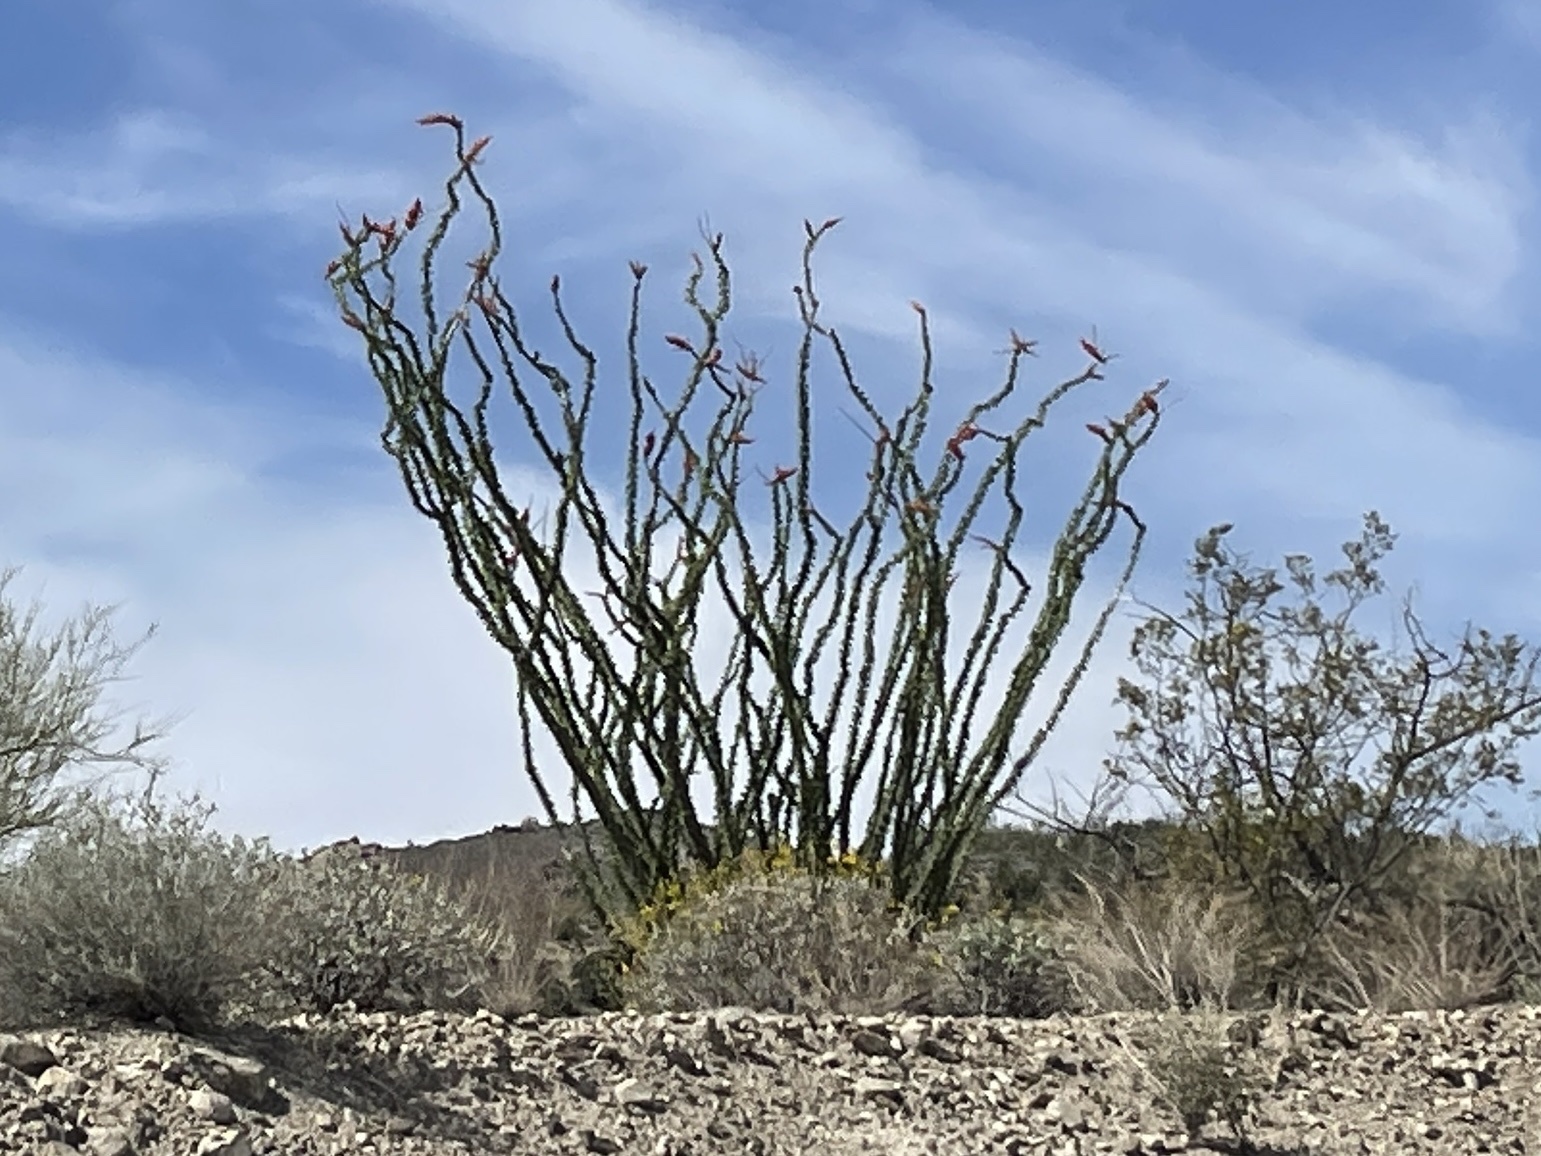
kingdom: Plantae
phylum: Tracheophyta
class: Magnoliopsida
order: Ericales
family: Fouquieriaceae
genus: Fouquieria
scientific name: Fouquieria splendens
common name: Vine-cactus
